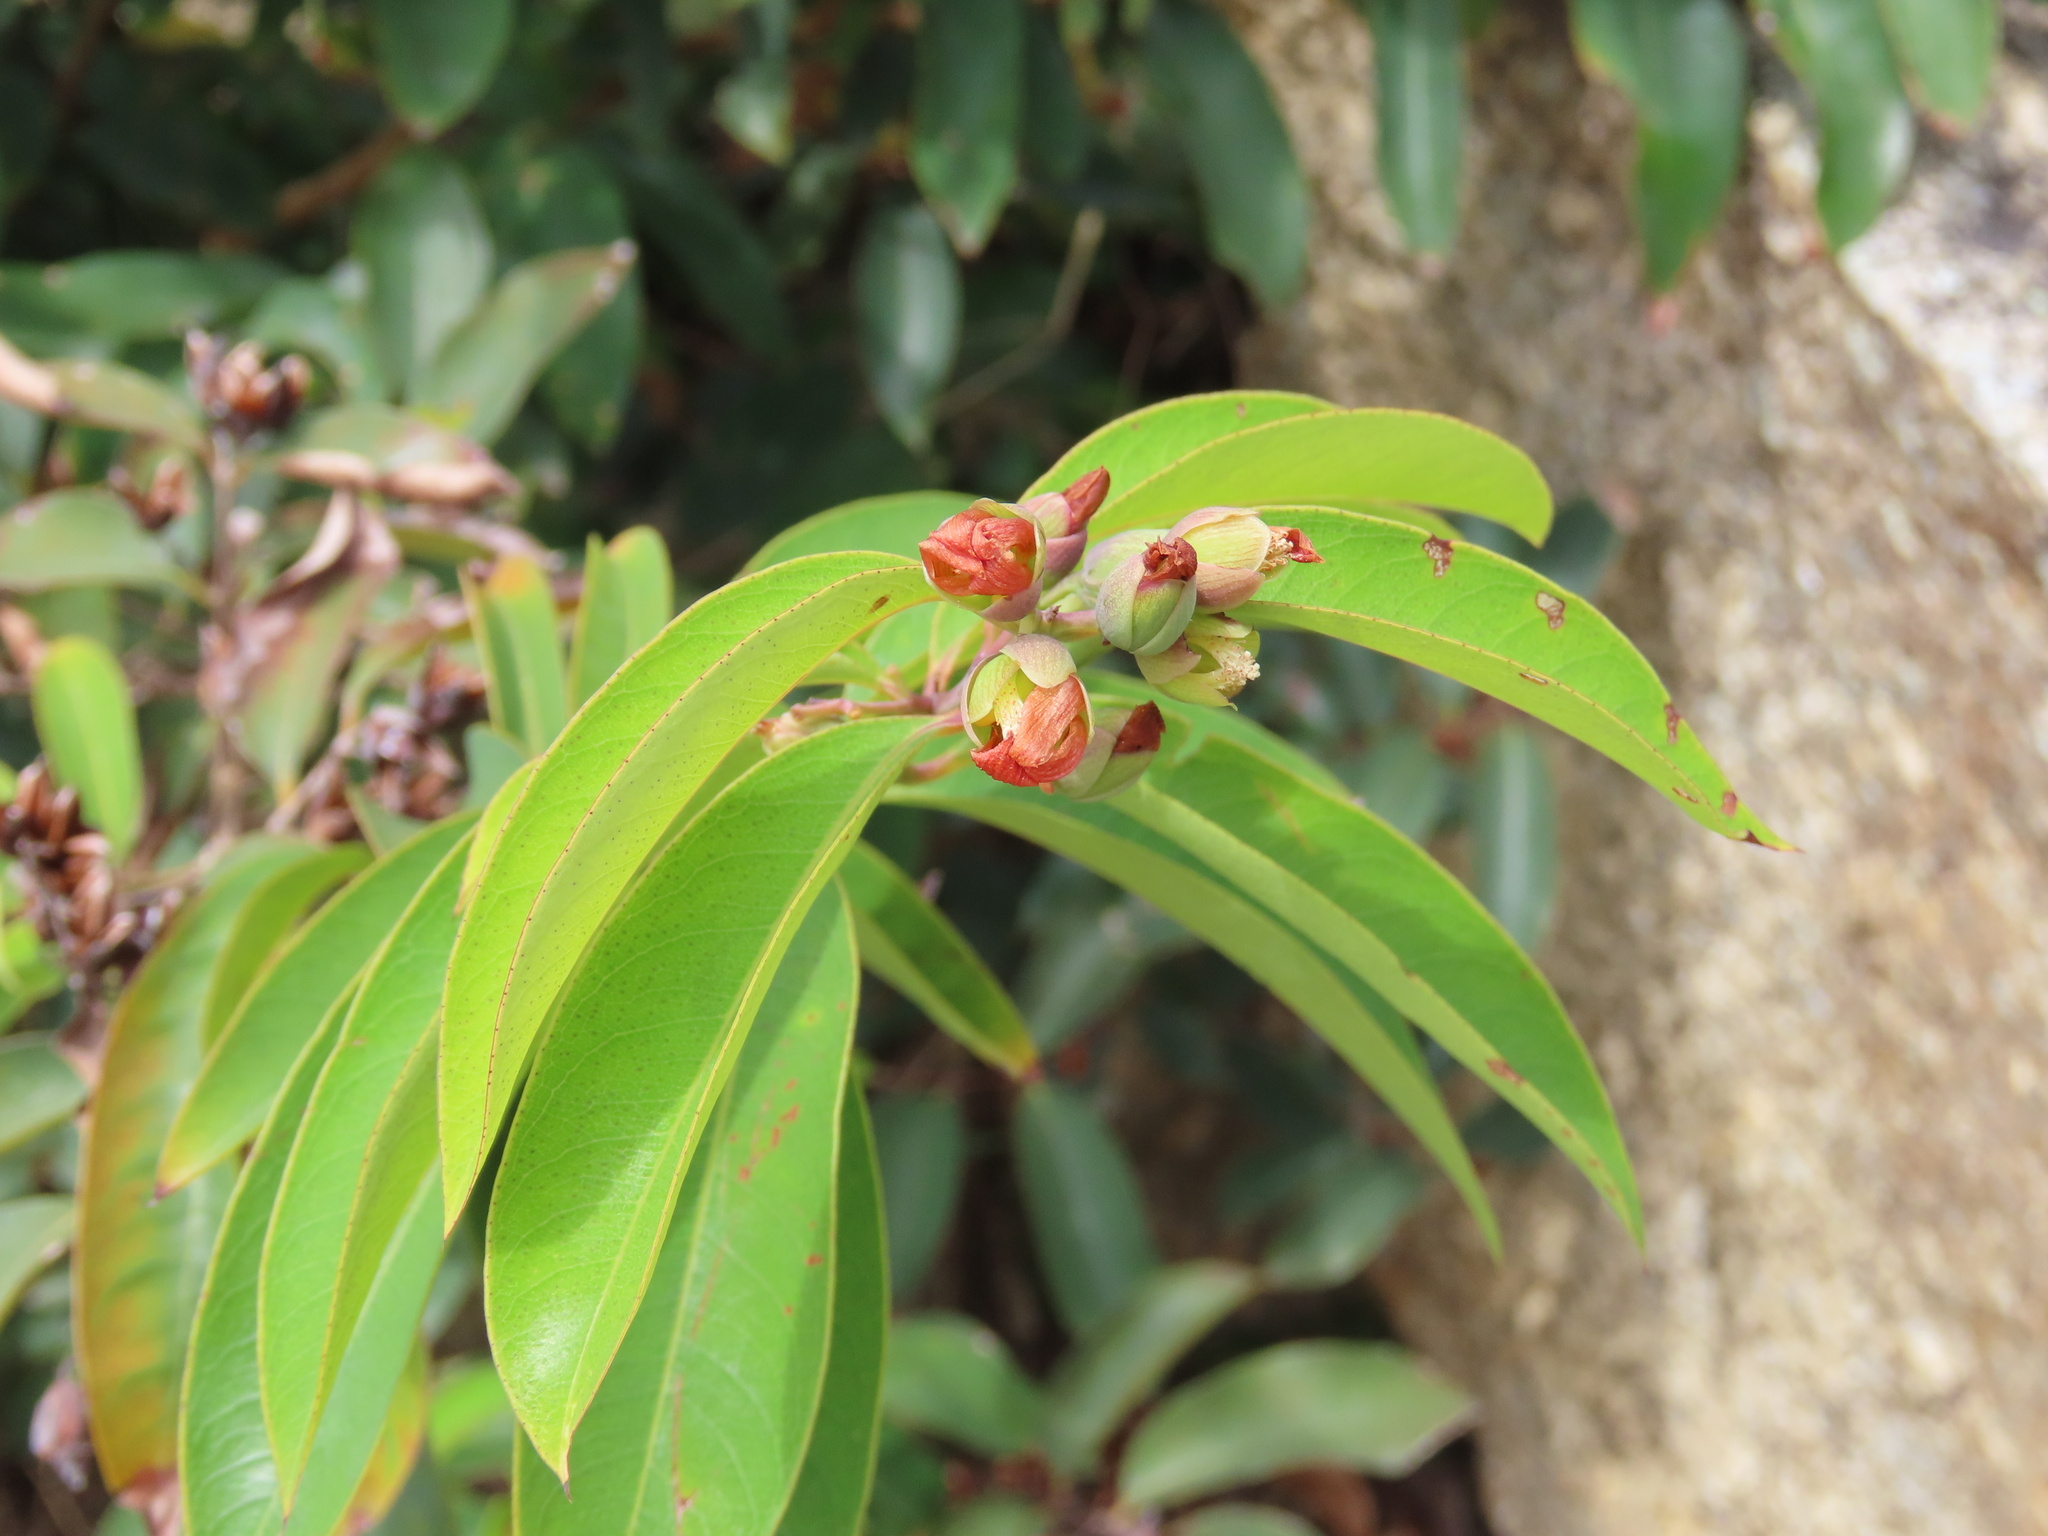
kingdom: Plantae
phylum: Tracheophyta
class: Magnoliopsida
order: Malpighiales
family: Hypericaceae
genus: Cratoxylum
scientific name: Cratoxylum cochinchinense
